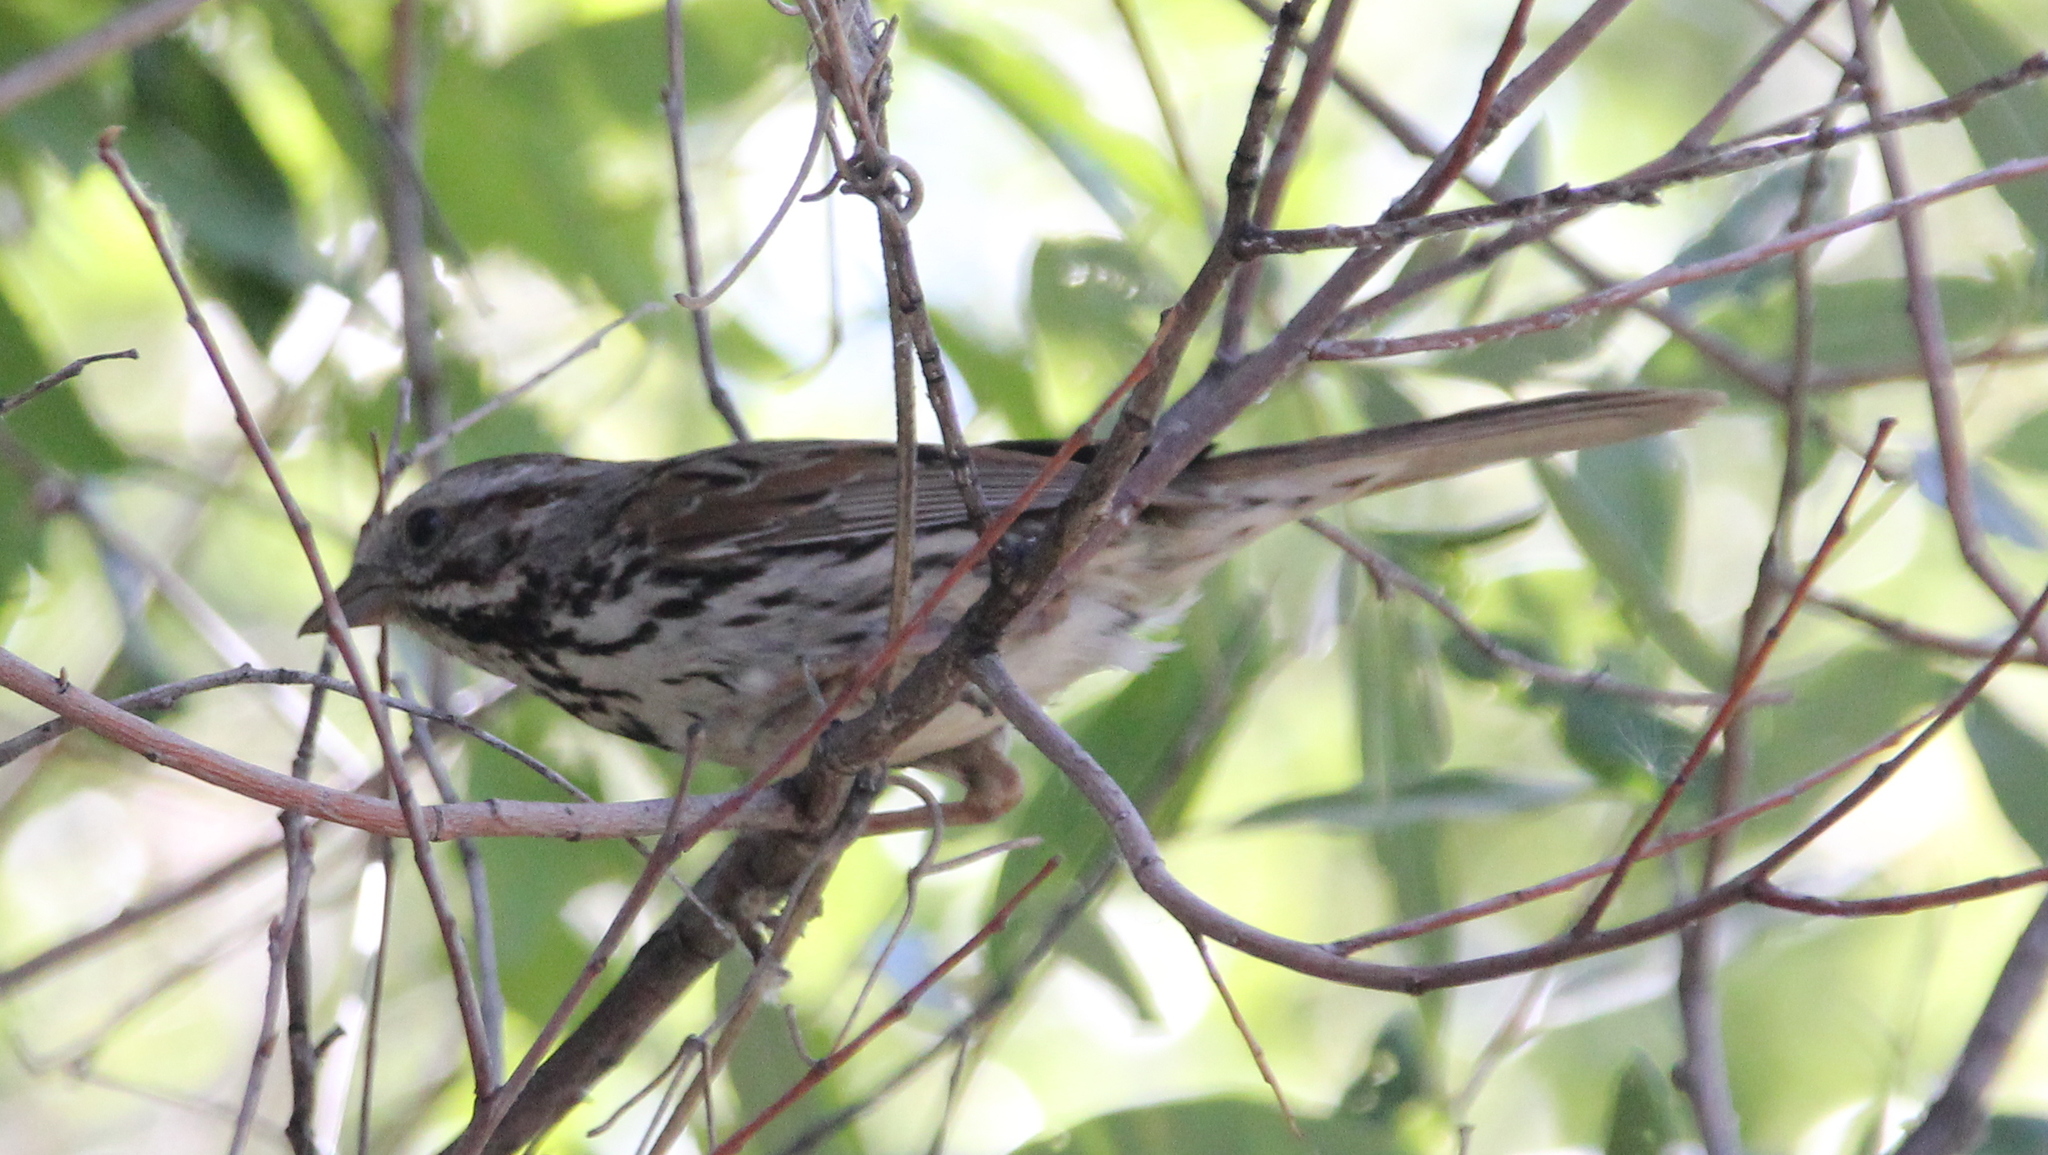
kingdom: Animalia
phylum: Chordata
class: Aves
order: Passeriformes
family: Passerellidae
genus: Melospiza
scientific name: Melospiza melodia
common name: Song sparrow
